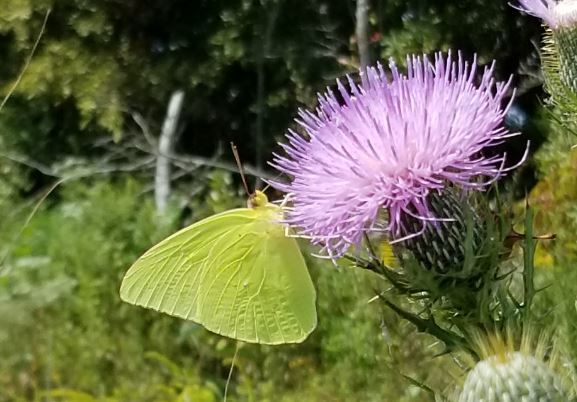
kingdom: Animalia
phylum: Arthropoda
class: Insecta
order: Lepidoptera
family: Pieridae
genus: Phoebis
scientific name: Phoebis sennae
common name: Cloudless sulphur
